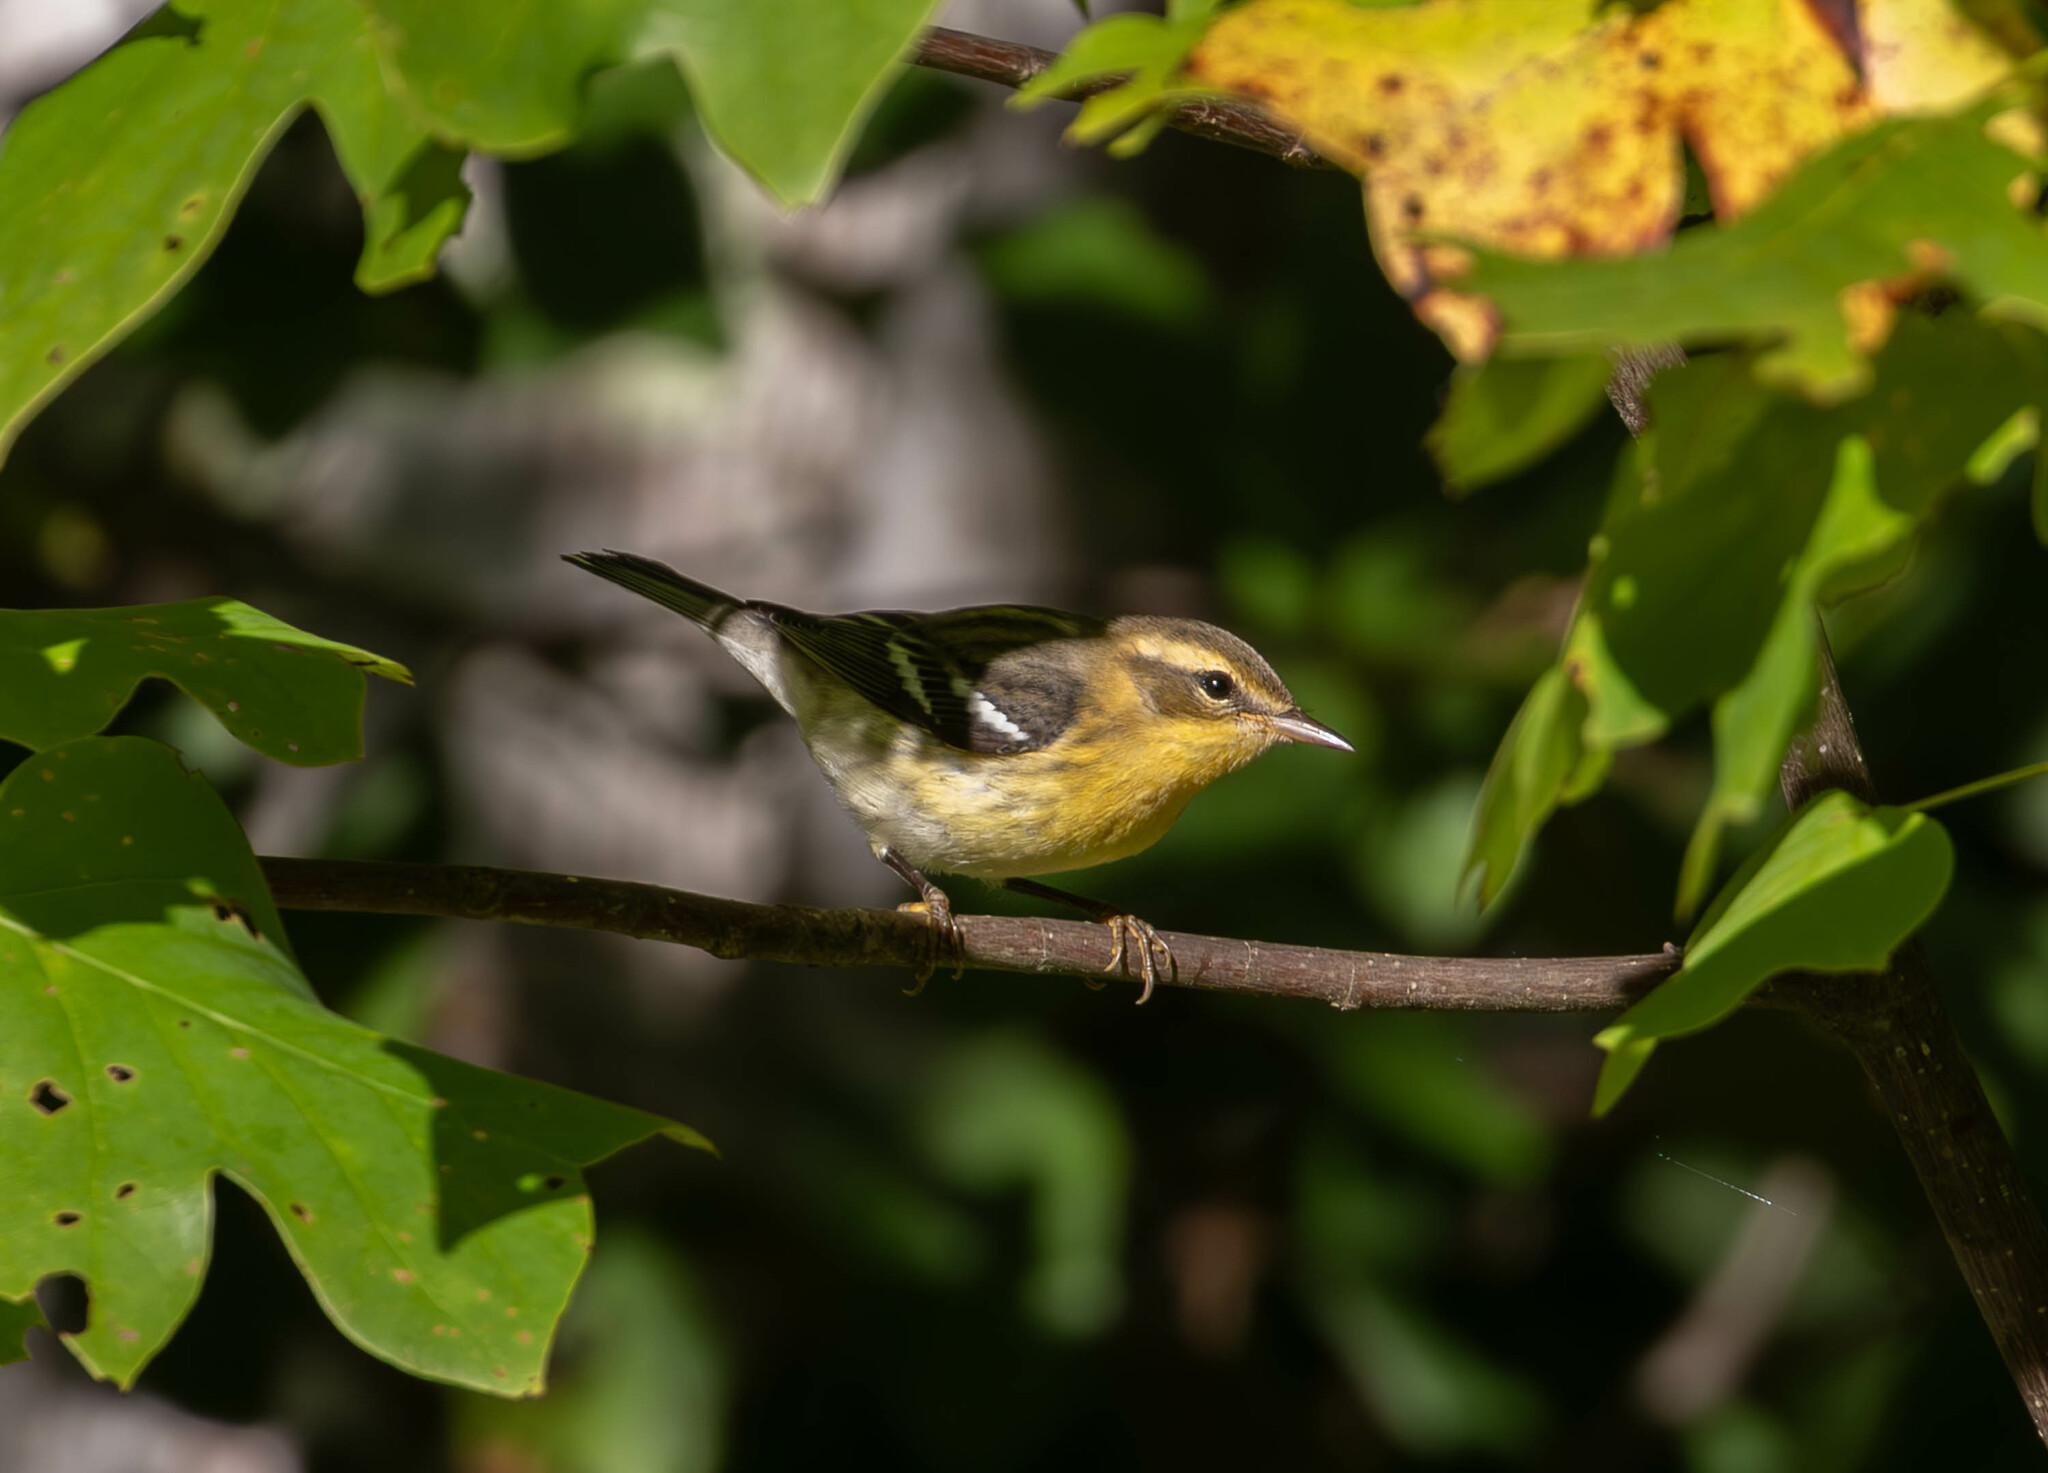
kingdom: Animalia
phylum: Chordata
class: Aves
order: Passeriformes
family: Parulidae
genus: Setophaga
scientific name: Setophaga fusca
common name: Blackburnian warbler
